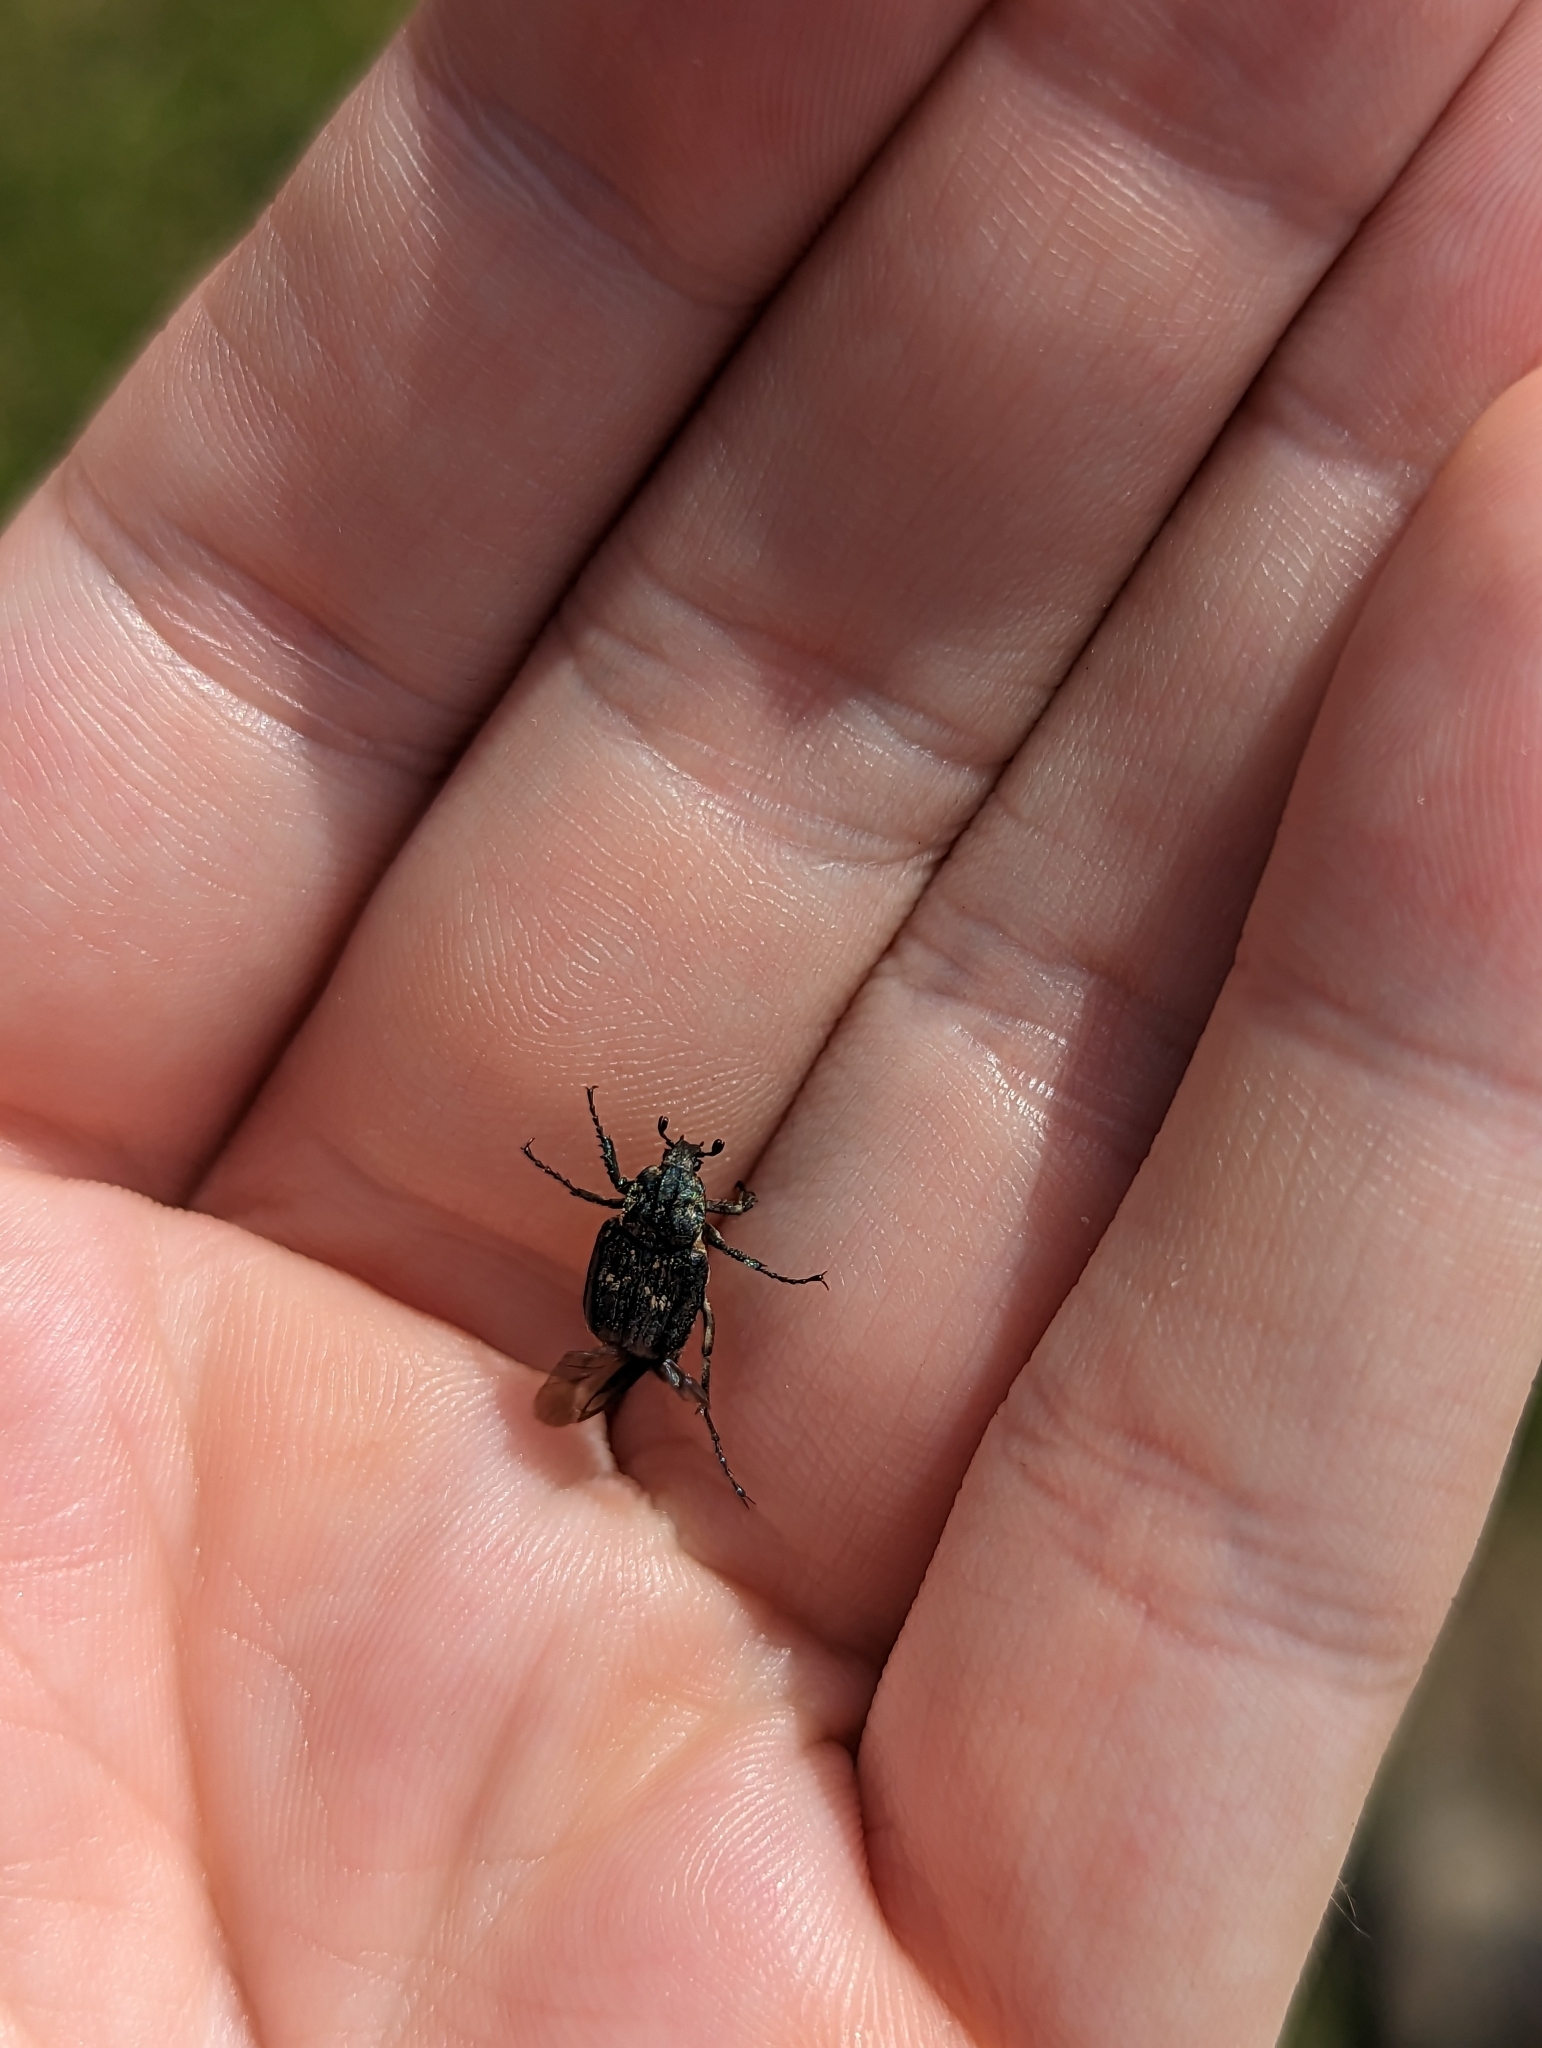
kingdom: Animalia
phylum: Arthropoda
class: Insecta
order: Coleoptera
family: Scarabaeidae
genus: Valgus
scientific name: Valgus hemipterus
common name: Bug flower chafer
